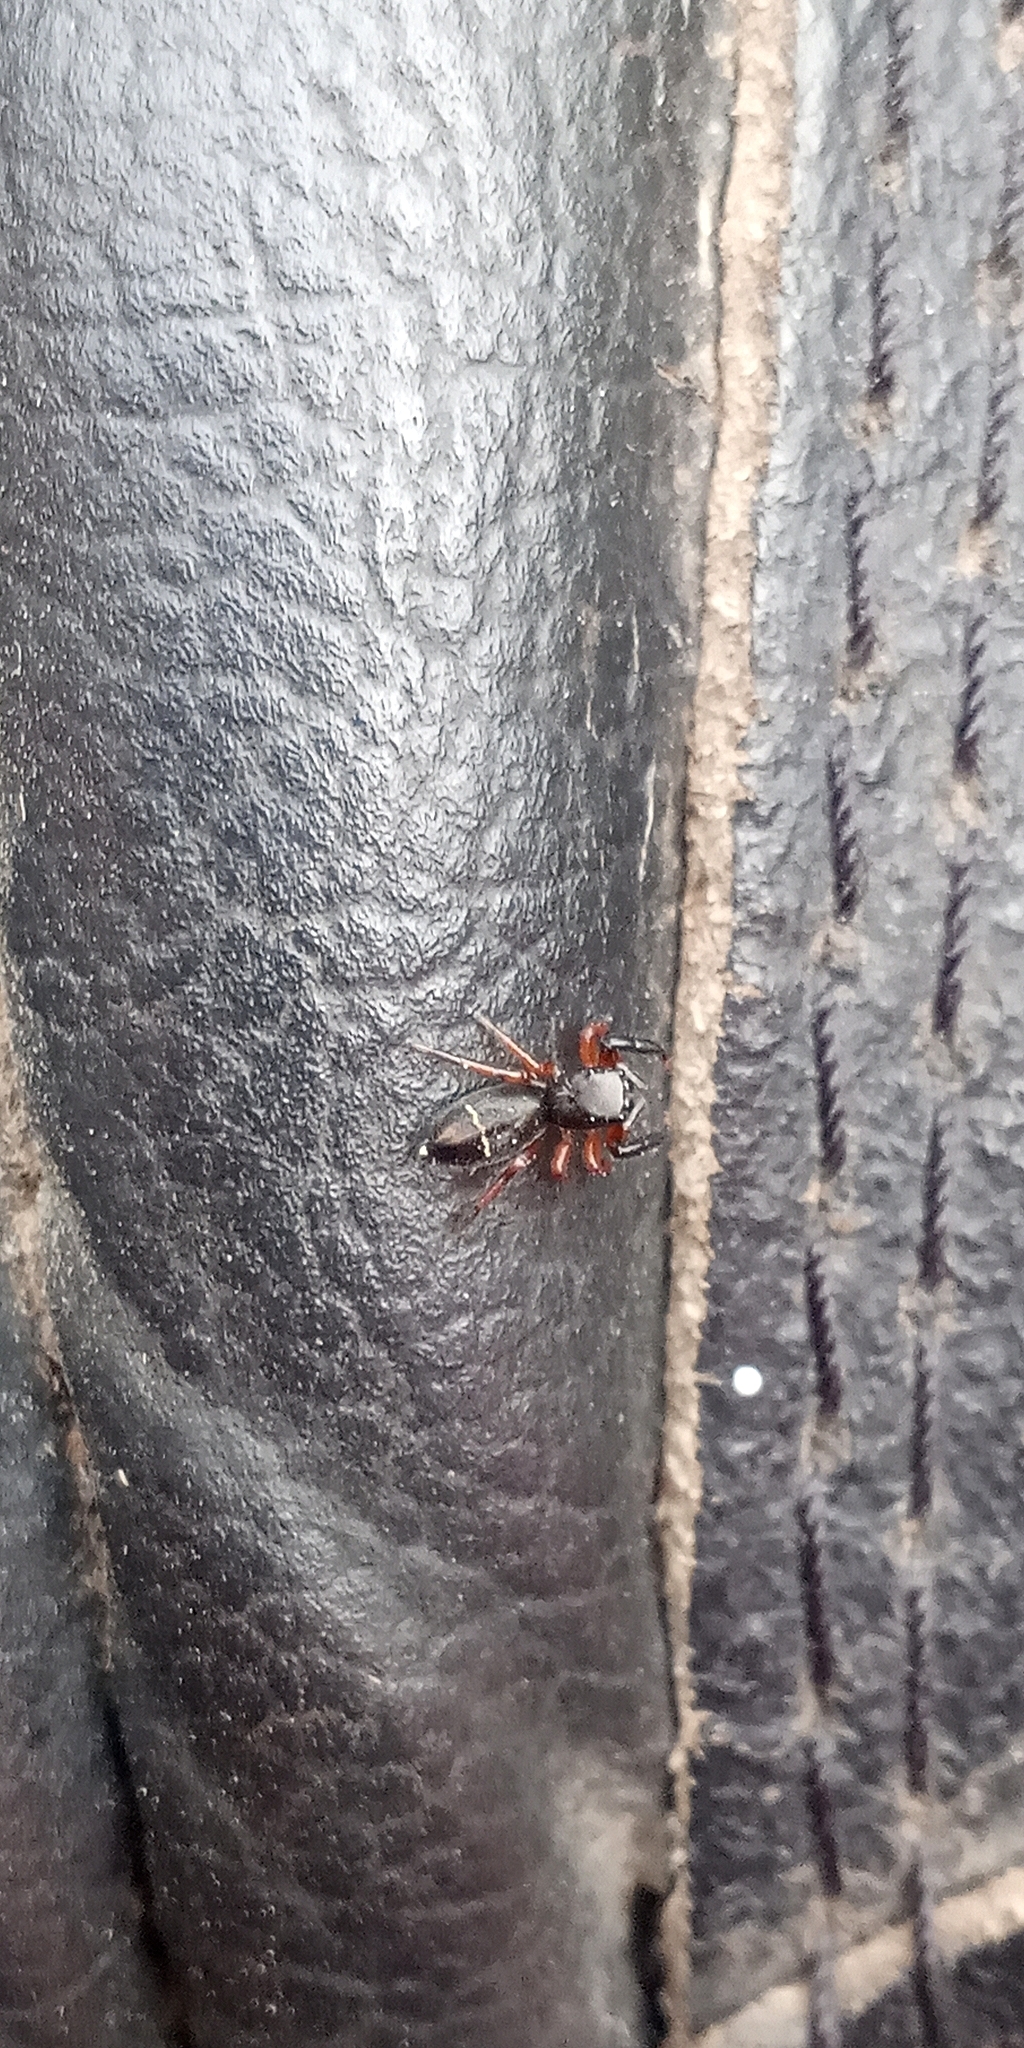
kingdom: Animalia
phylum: Arthropoda
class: Arachnida
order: Araneae
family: Salticidae
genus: Breda
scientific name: Breda tristis
